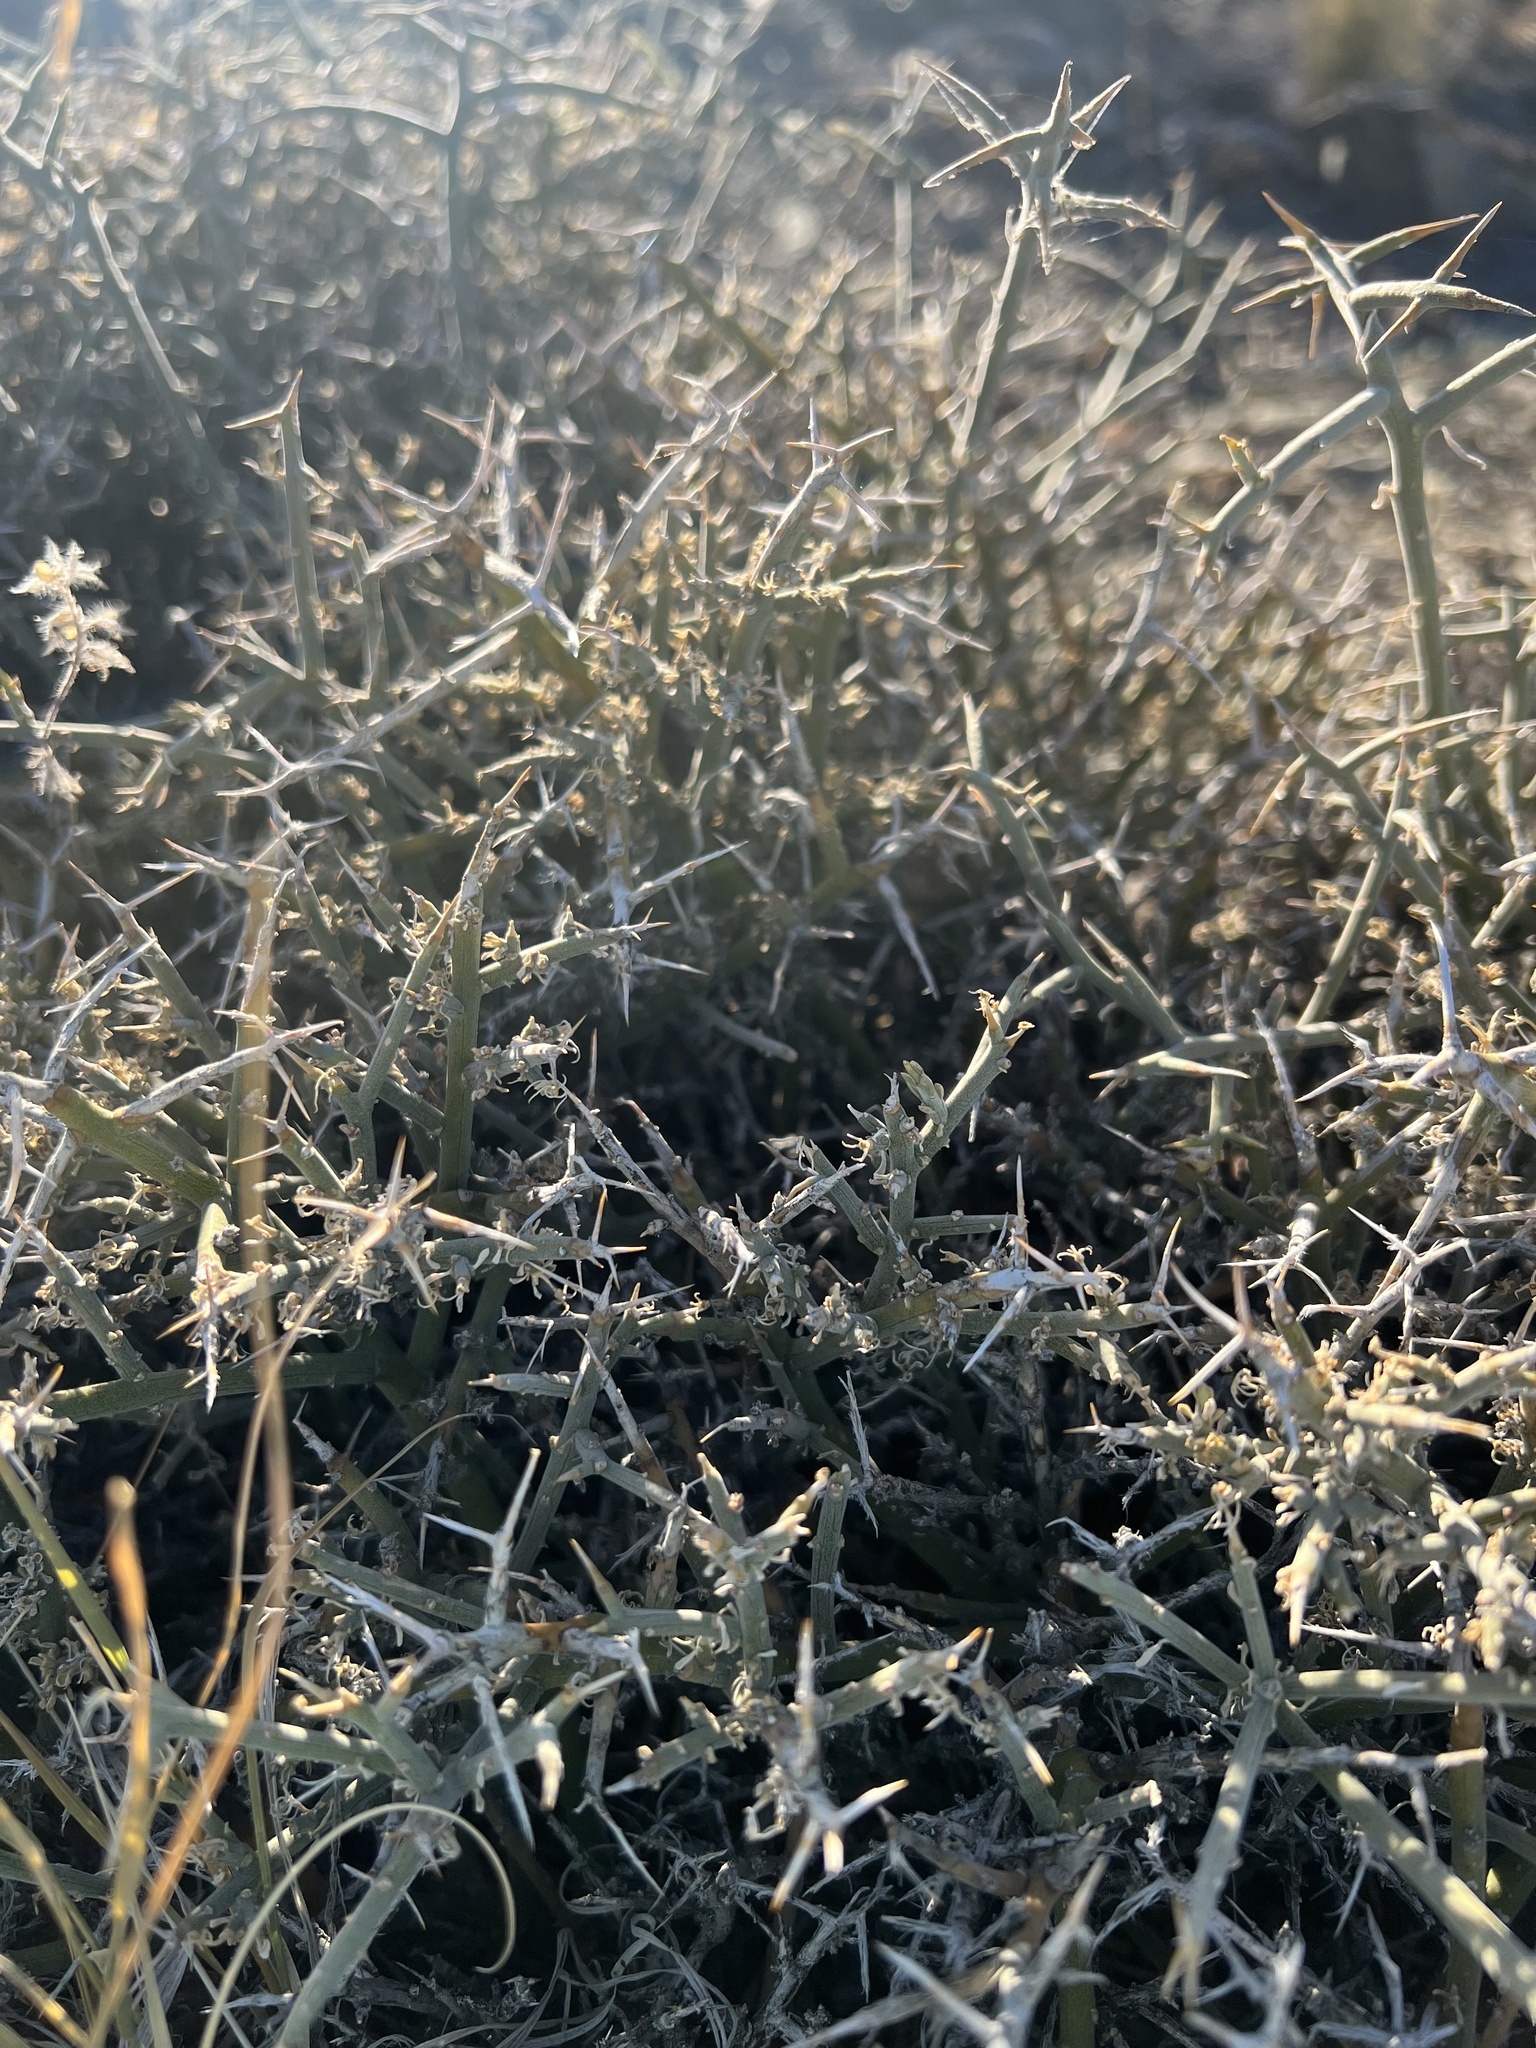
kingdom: Plantae
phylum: Tracheophyta
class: Magnoliopsida
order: Lamiales
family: Oleaceae
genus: Menodora
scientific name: Menodora spinescens
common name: Spiny menodora
